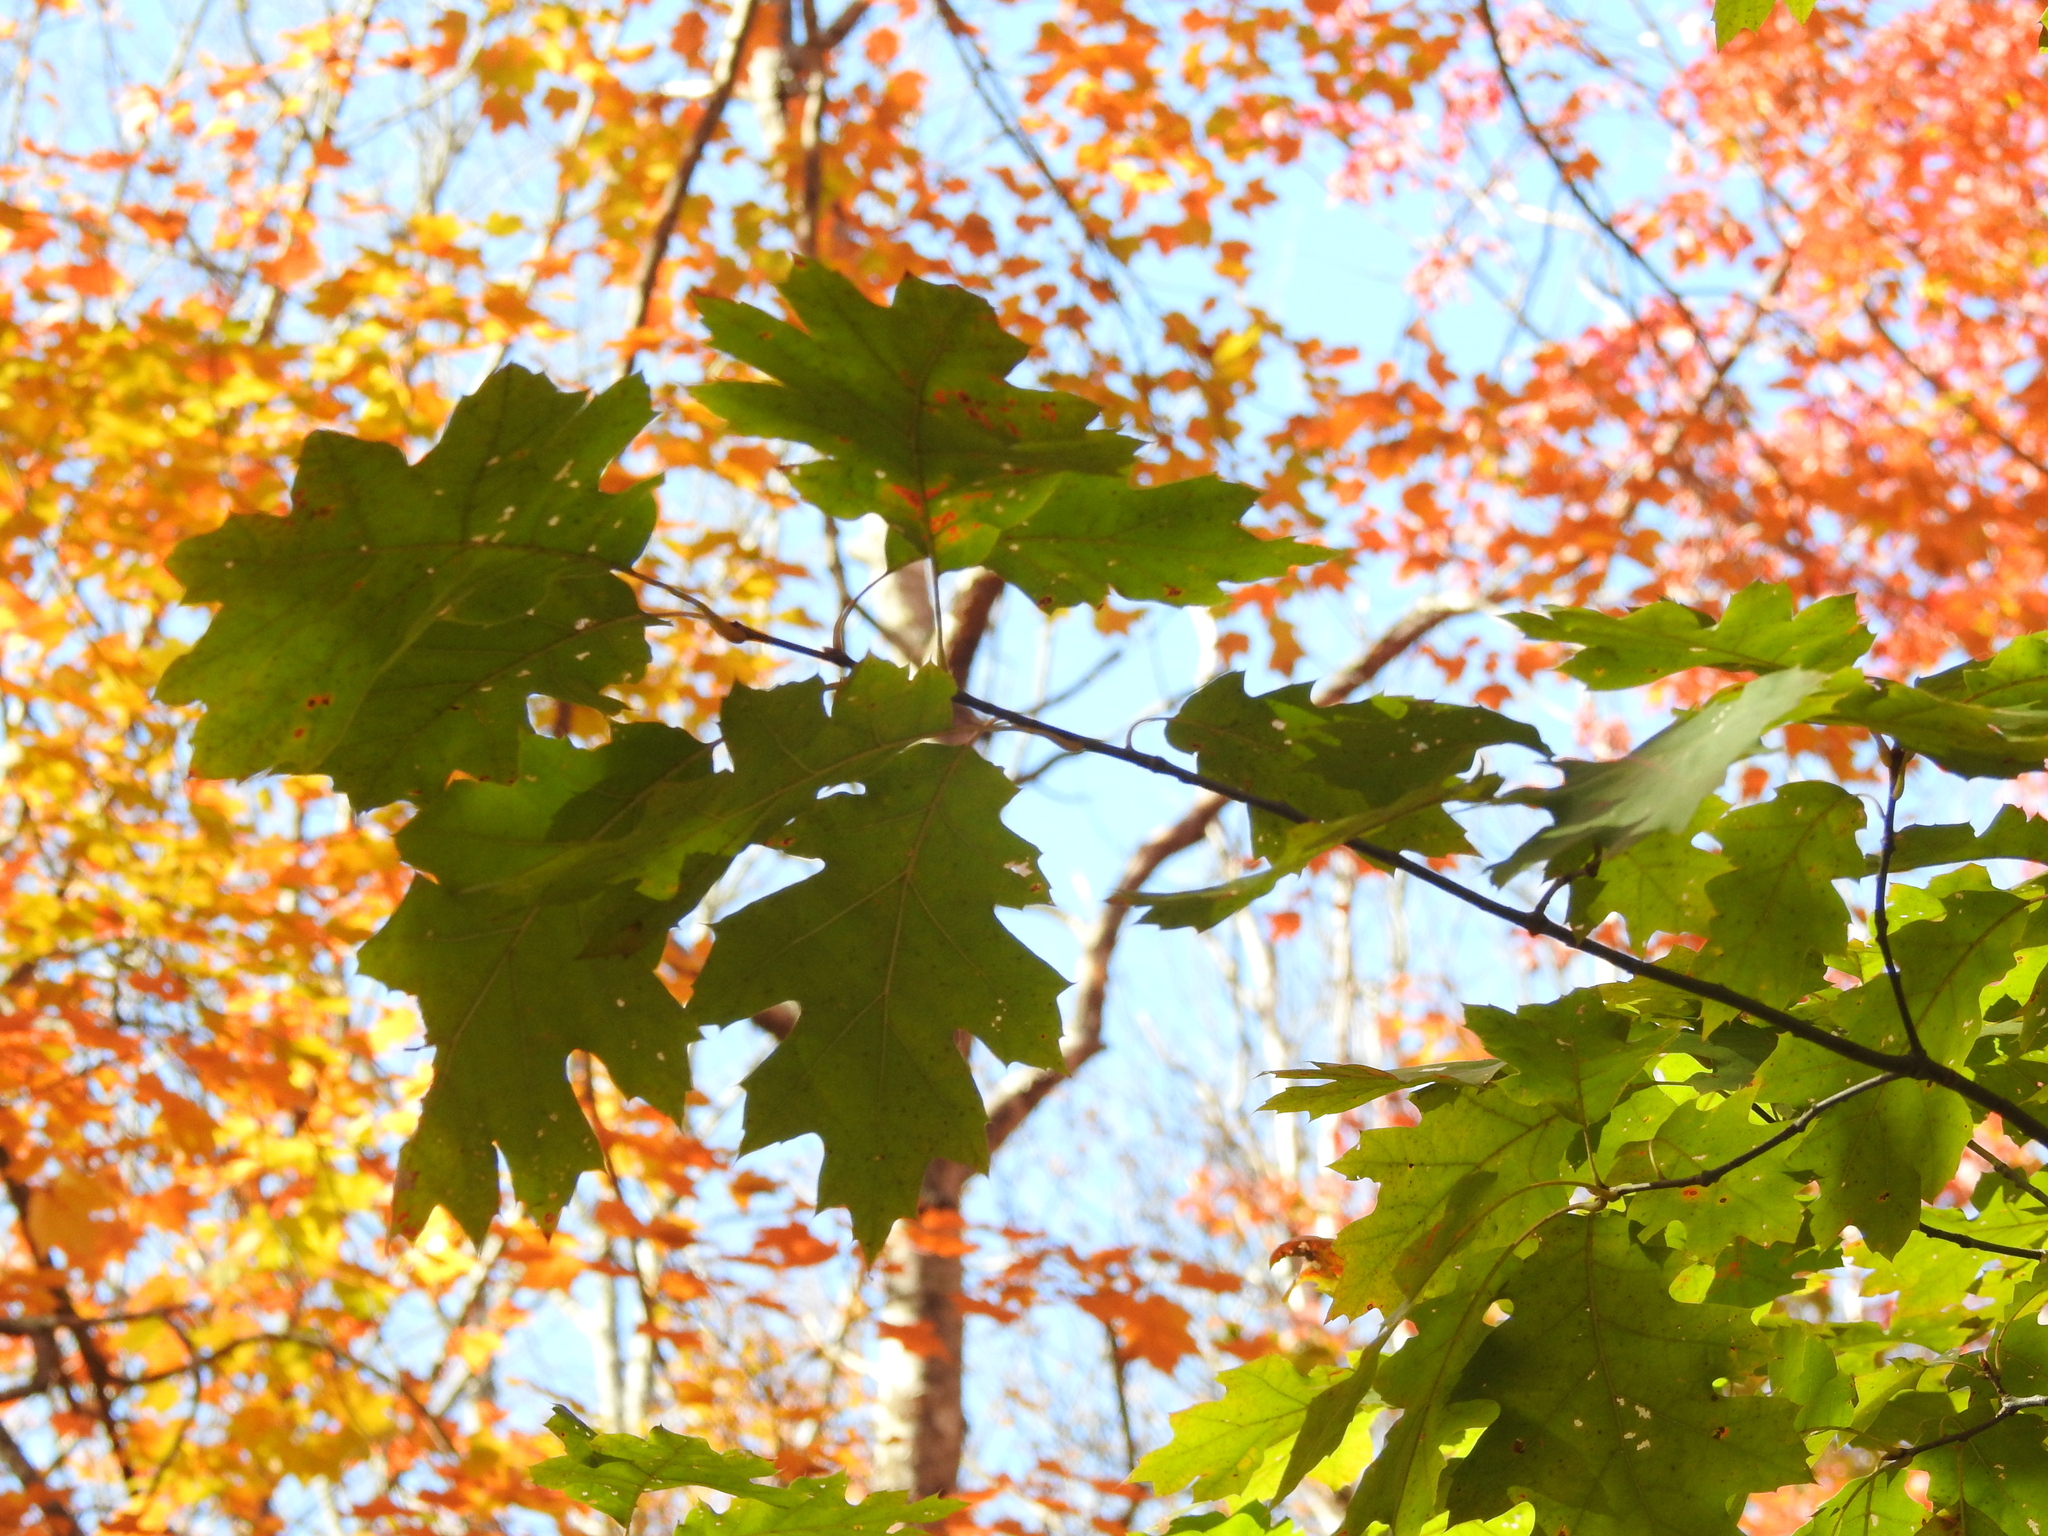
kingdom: Plantae
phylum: Tracheophyta
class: Magnoliopsida
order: Fagales
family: Fagaceae
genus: Quercus
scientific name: Quercus rubra
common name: Red oak
